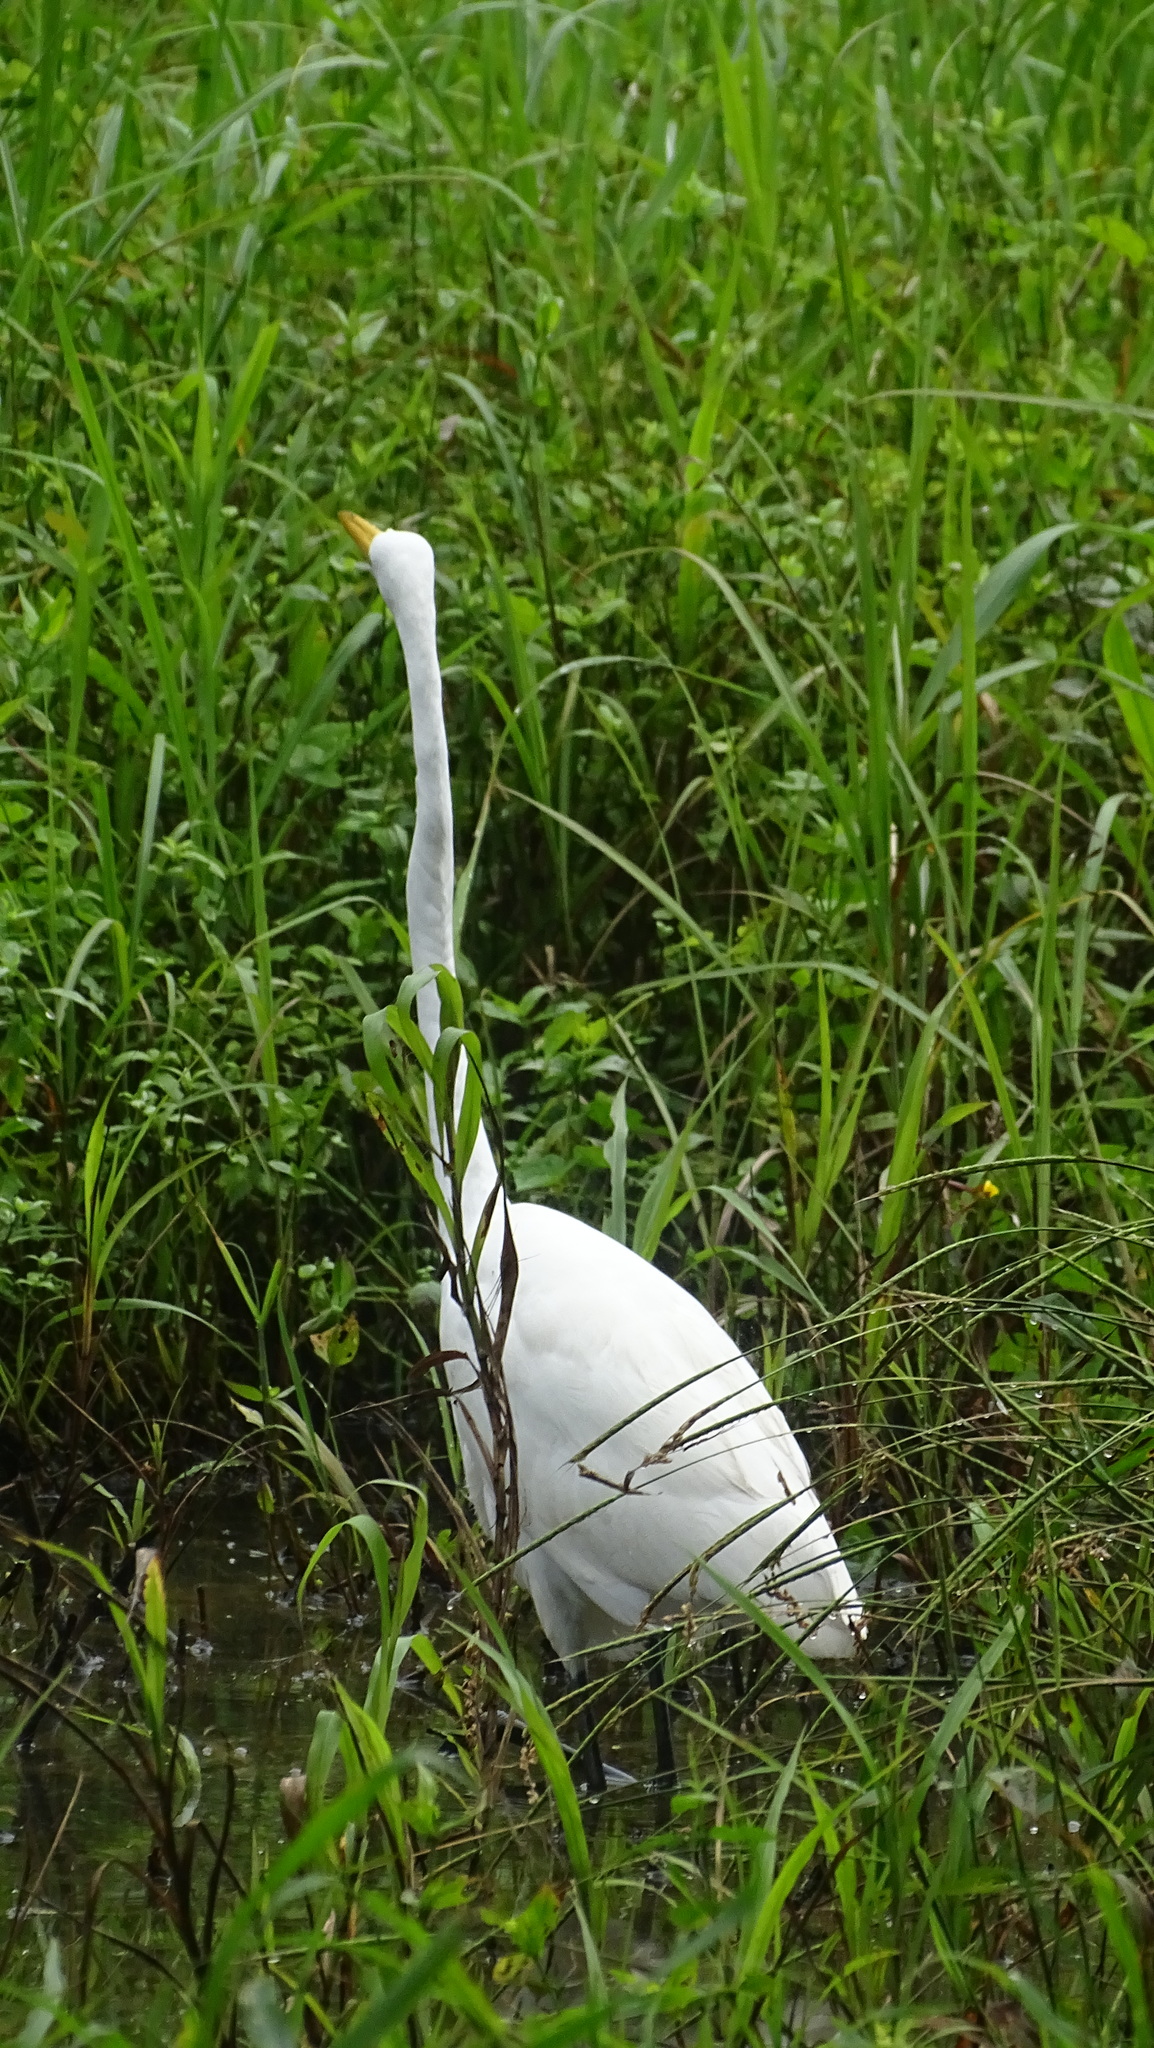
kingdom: Animalia
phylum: Chordata
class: Aves
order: Pelecaniformes
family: Ardeidae
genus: Ardea
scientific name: Ardea alba
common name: Great egret
